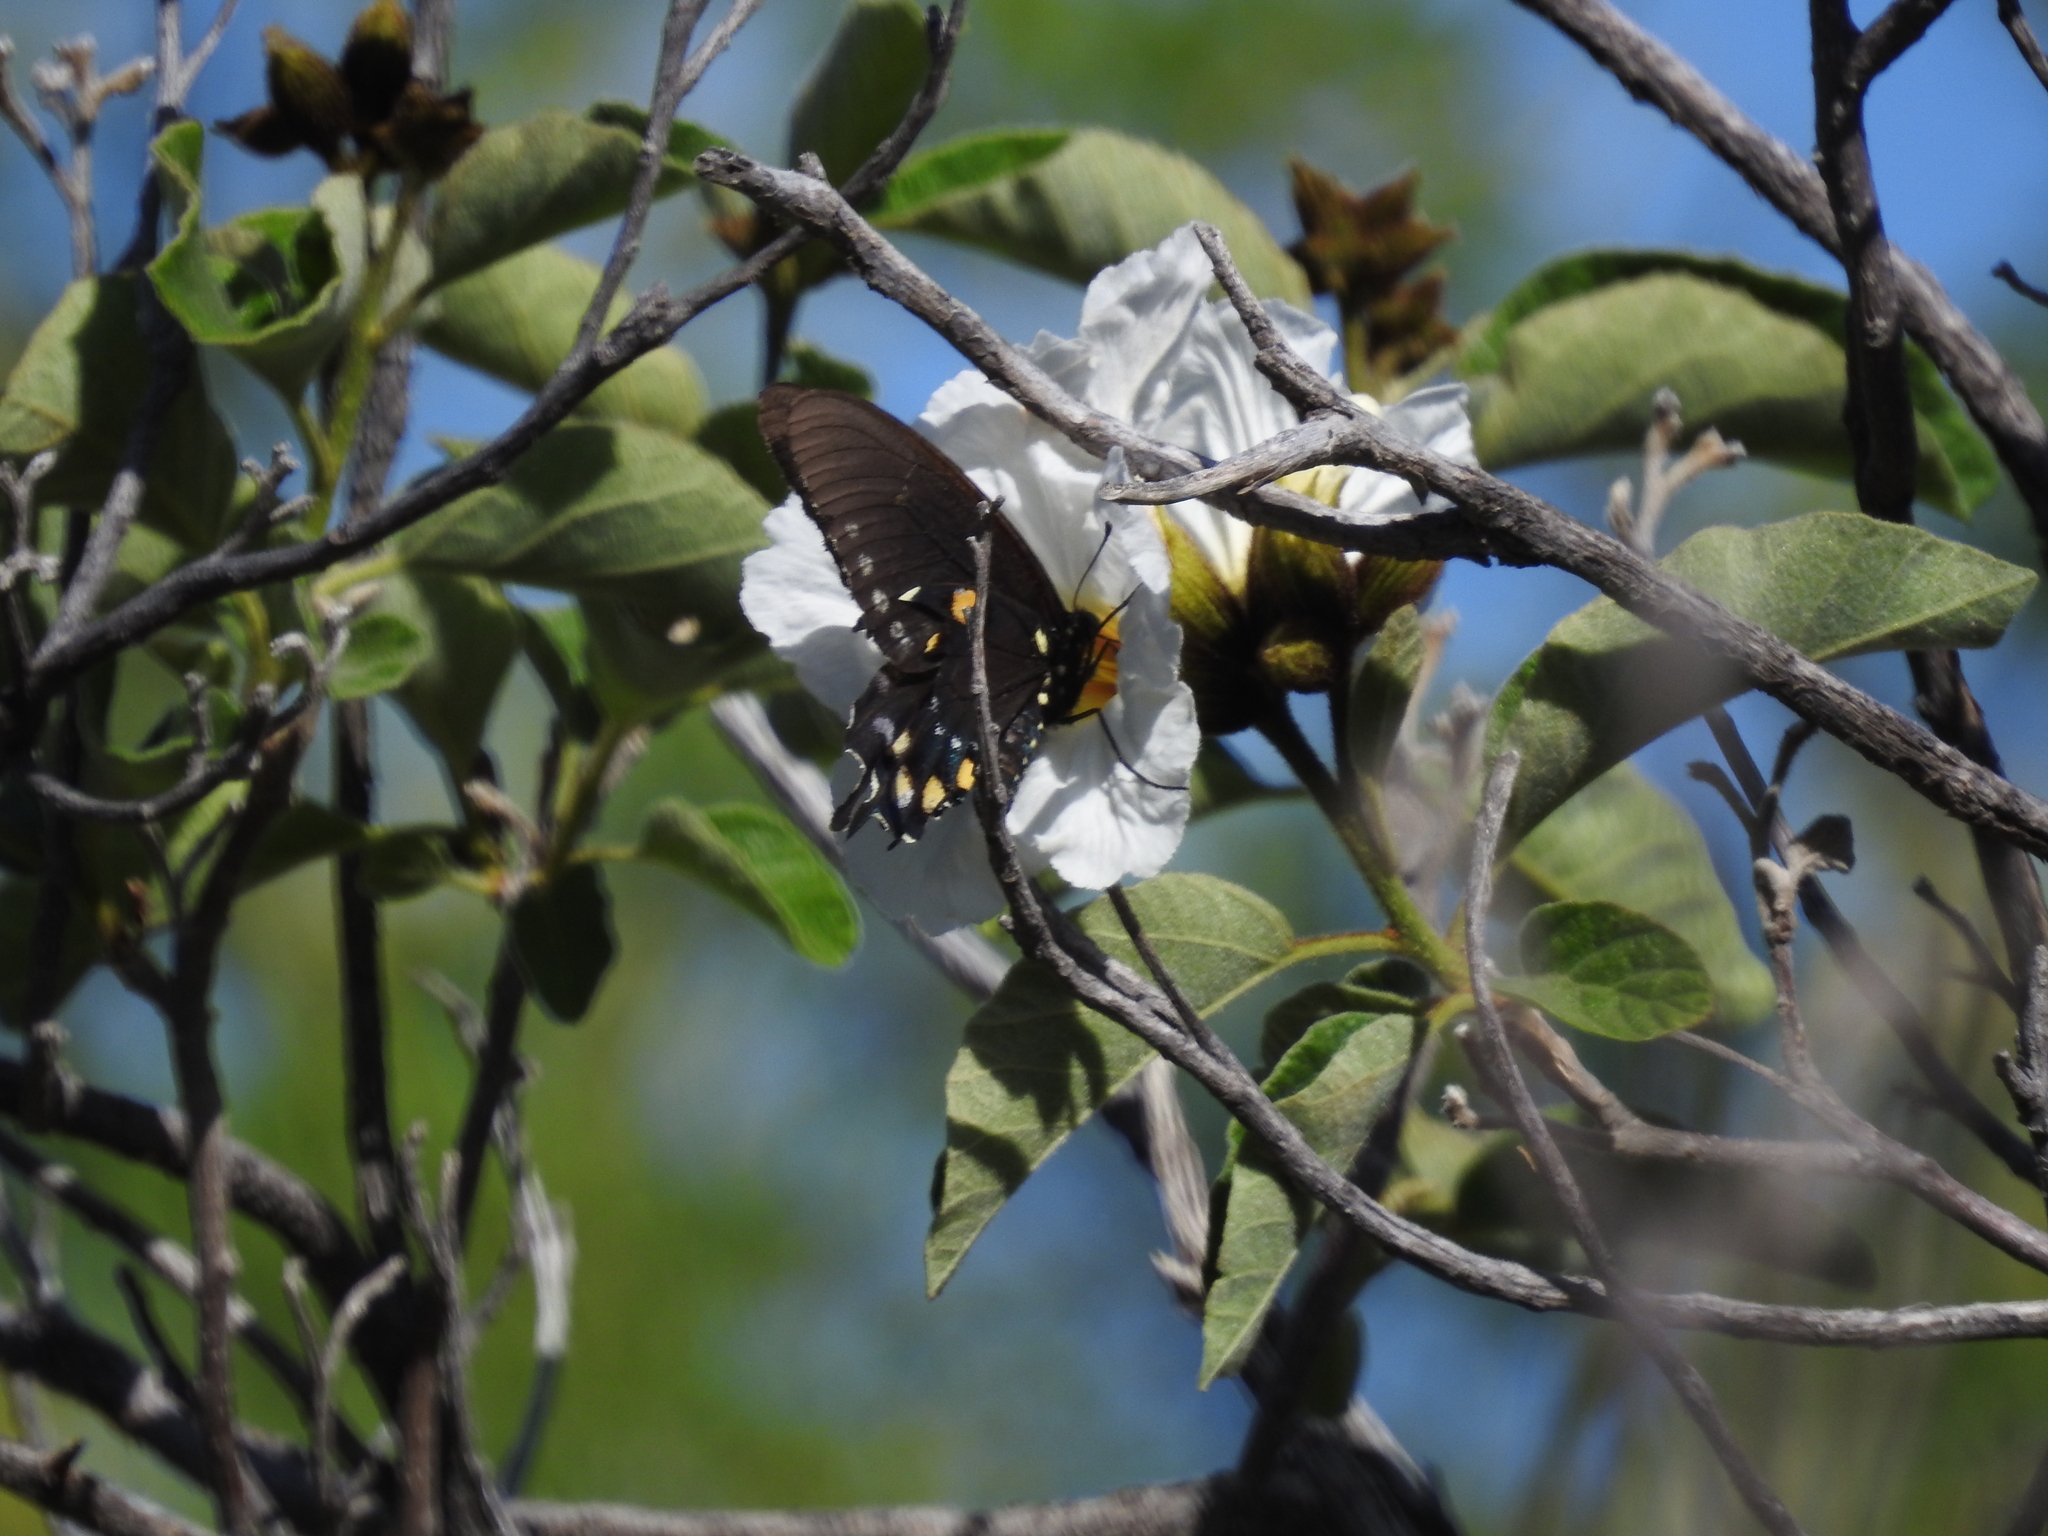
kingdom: Animalia
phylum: Arthropoda
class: Insecta
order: Lepidoptera
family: Papilionidae
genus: Battus
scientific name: Battus philenor
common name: Pipevine swallowtail
